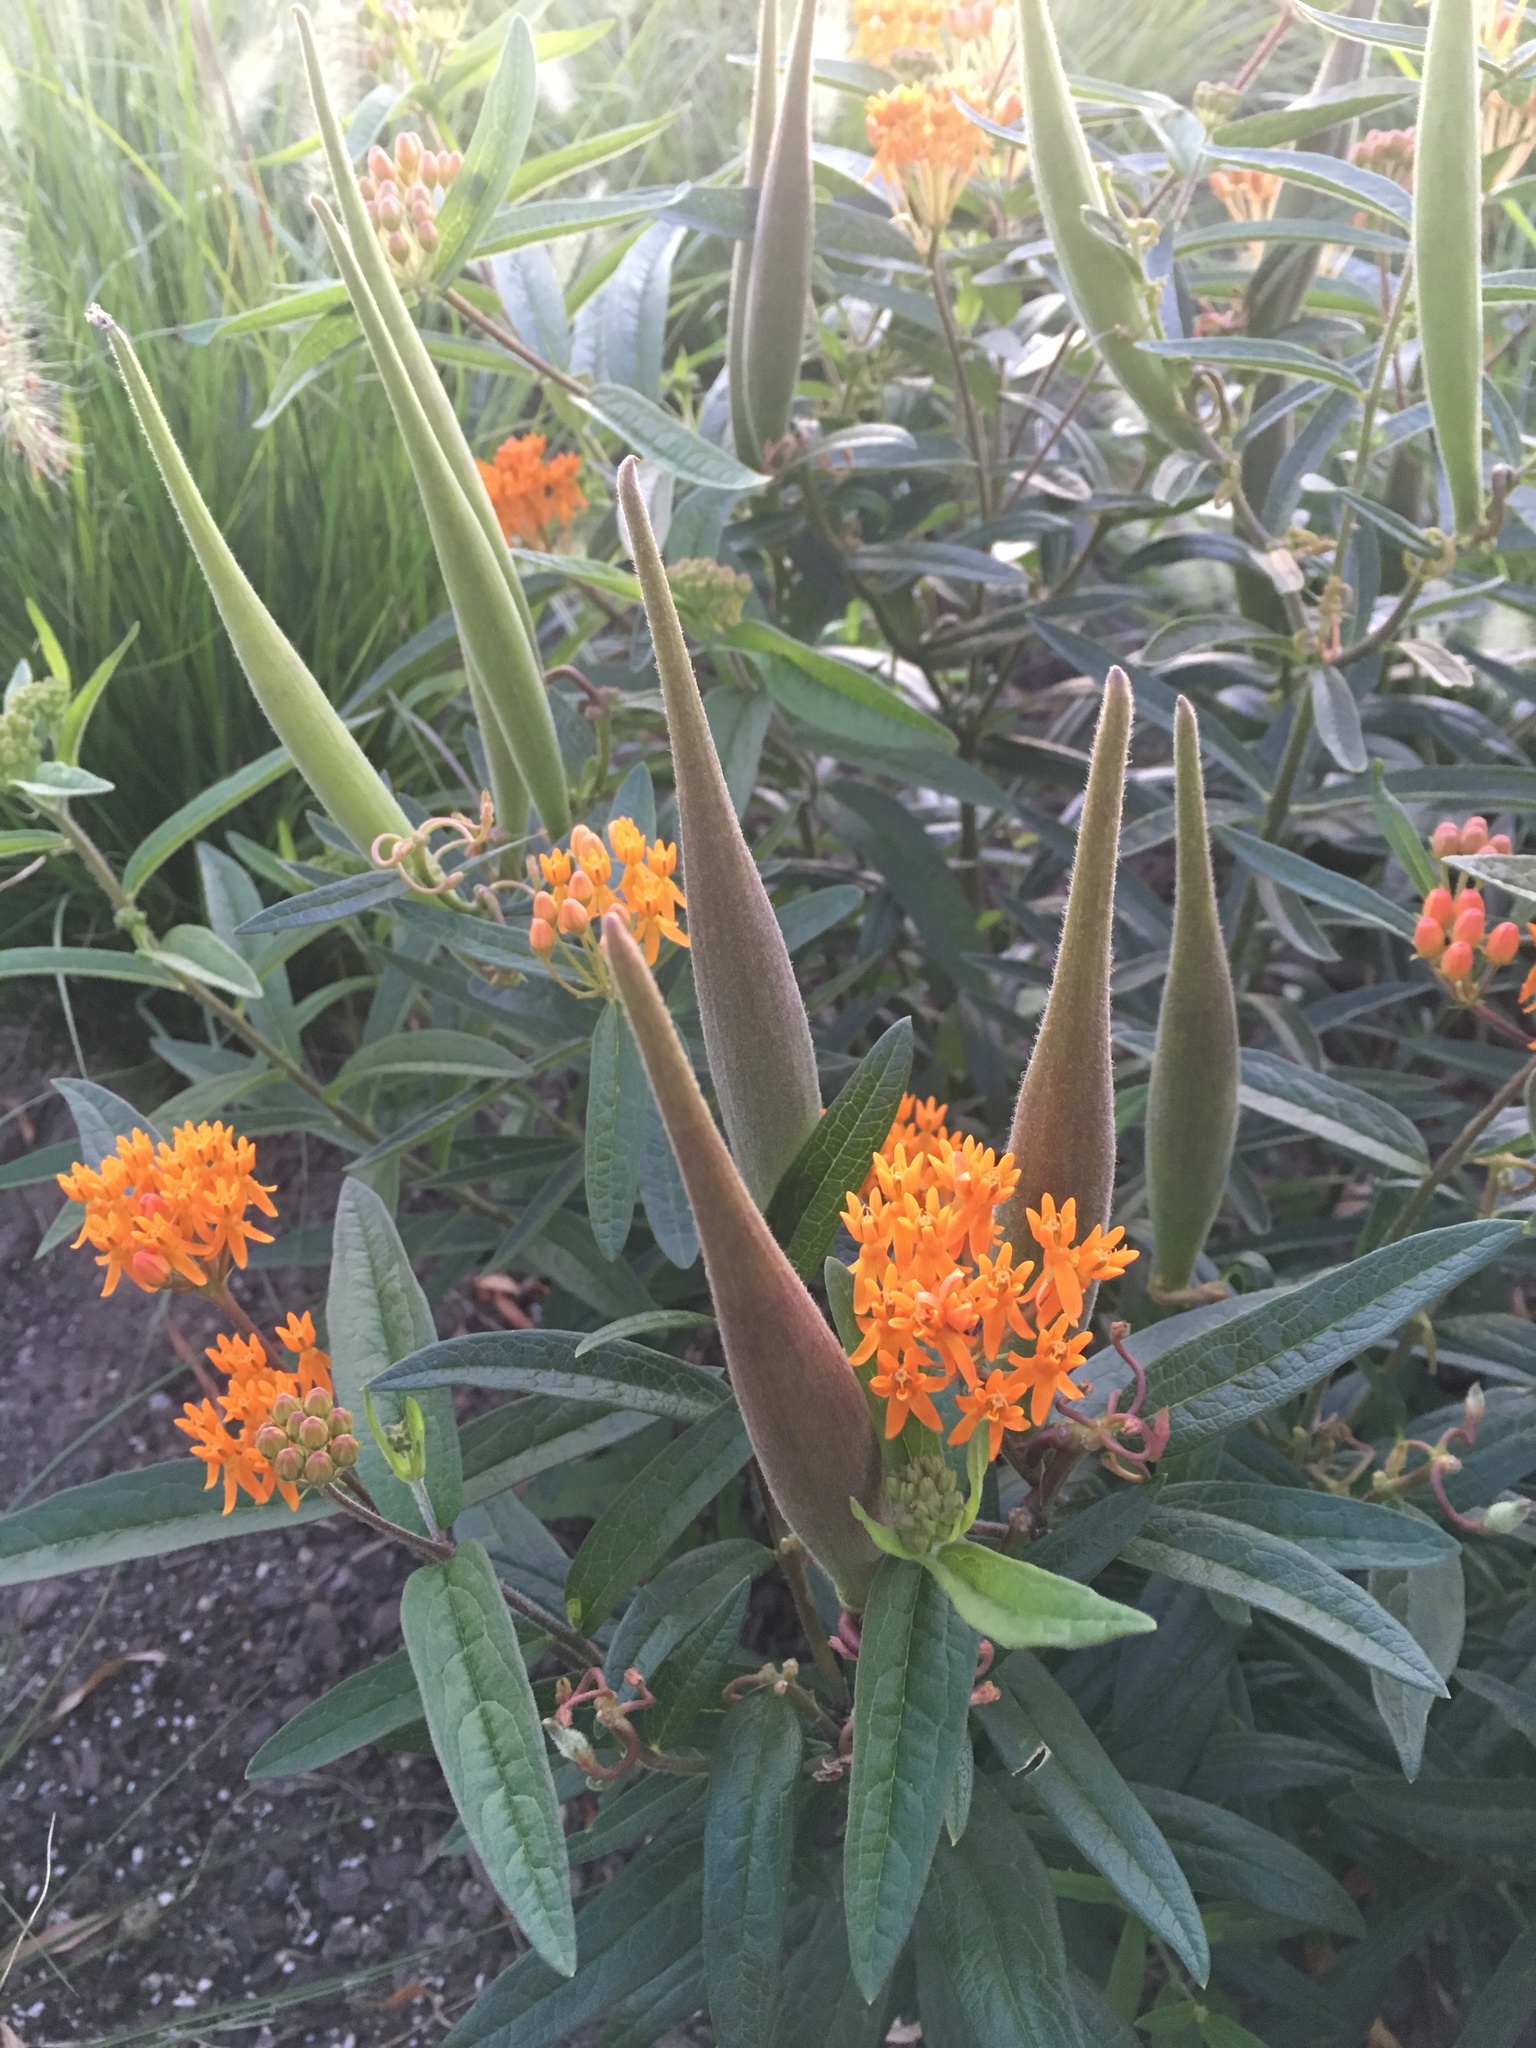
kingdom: Plantae
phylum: Tracheophyta
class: Magnoliopsida
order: Gentianales
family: Apocynaceae
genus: Asclepias
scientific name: Asclepias tuberosa
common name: Butterfly milkweed
